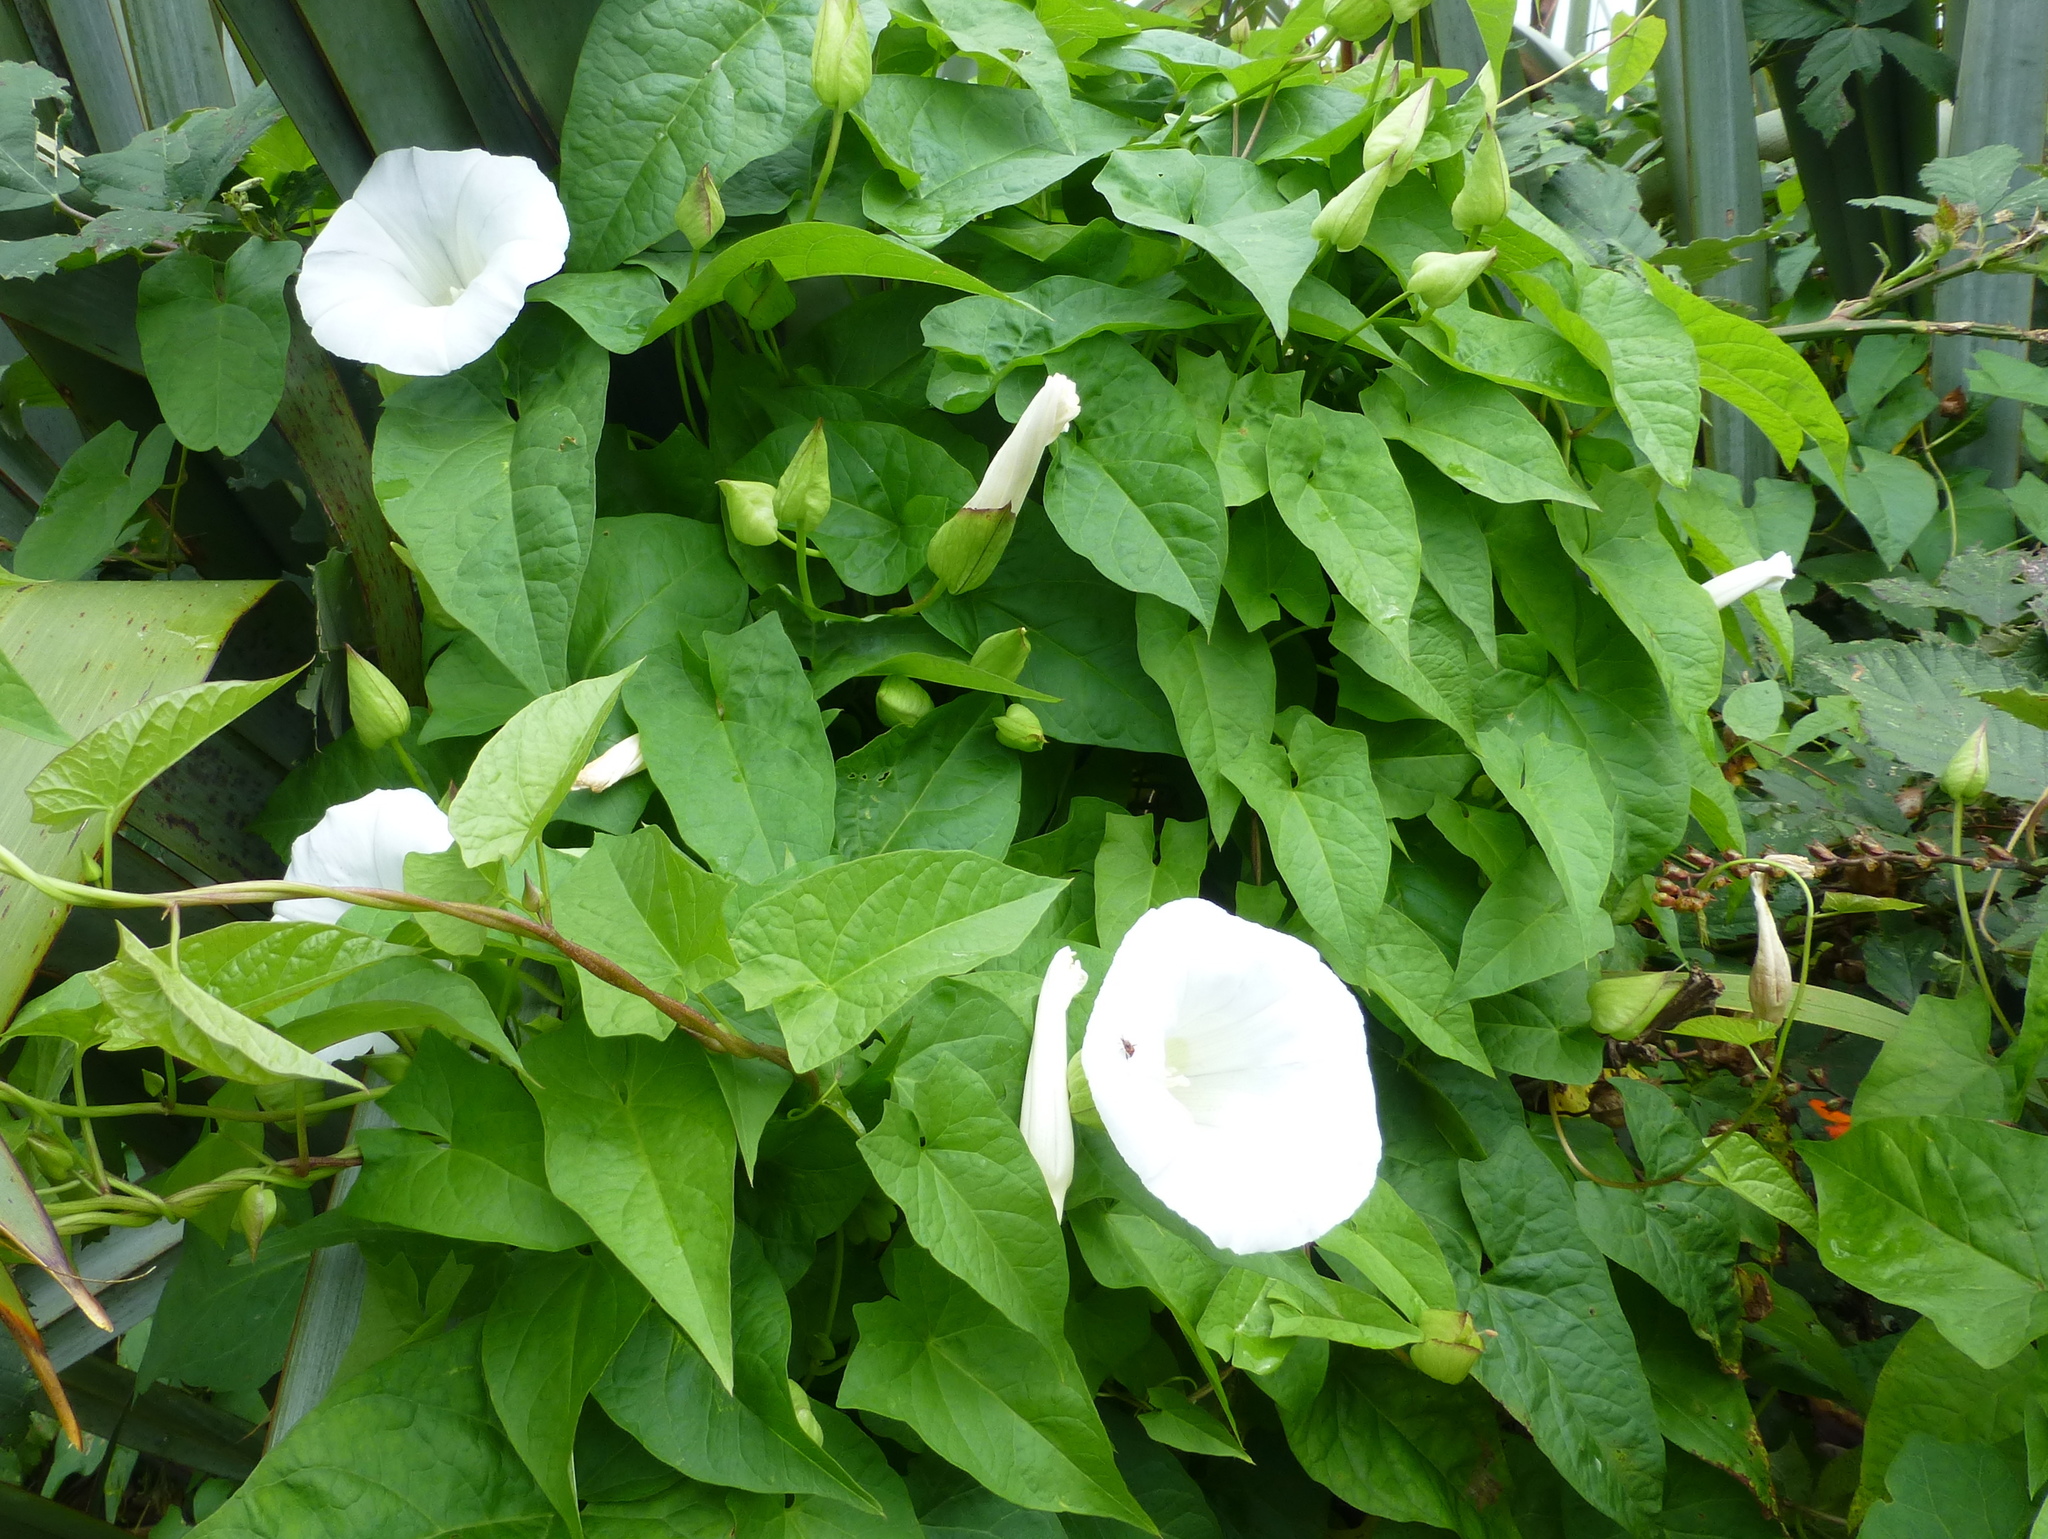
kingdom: Plantae
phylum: Tracheophyta
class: Magnoliopsida
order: Solanales
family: Convolvulaceae
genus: Calystegia
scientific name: Calystegia silvatica
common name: Large bindweed
